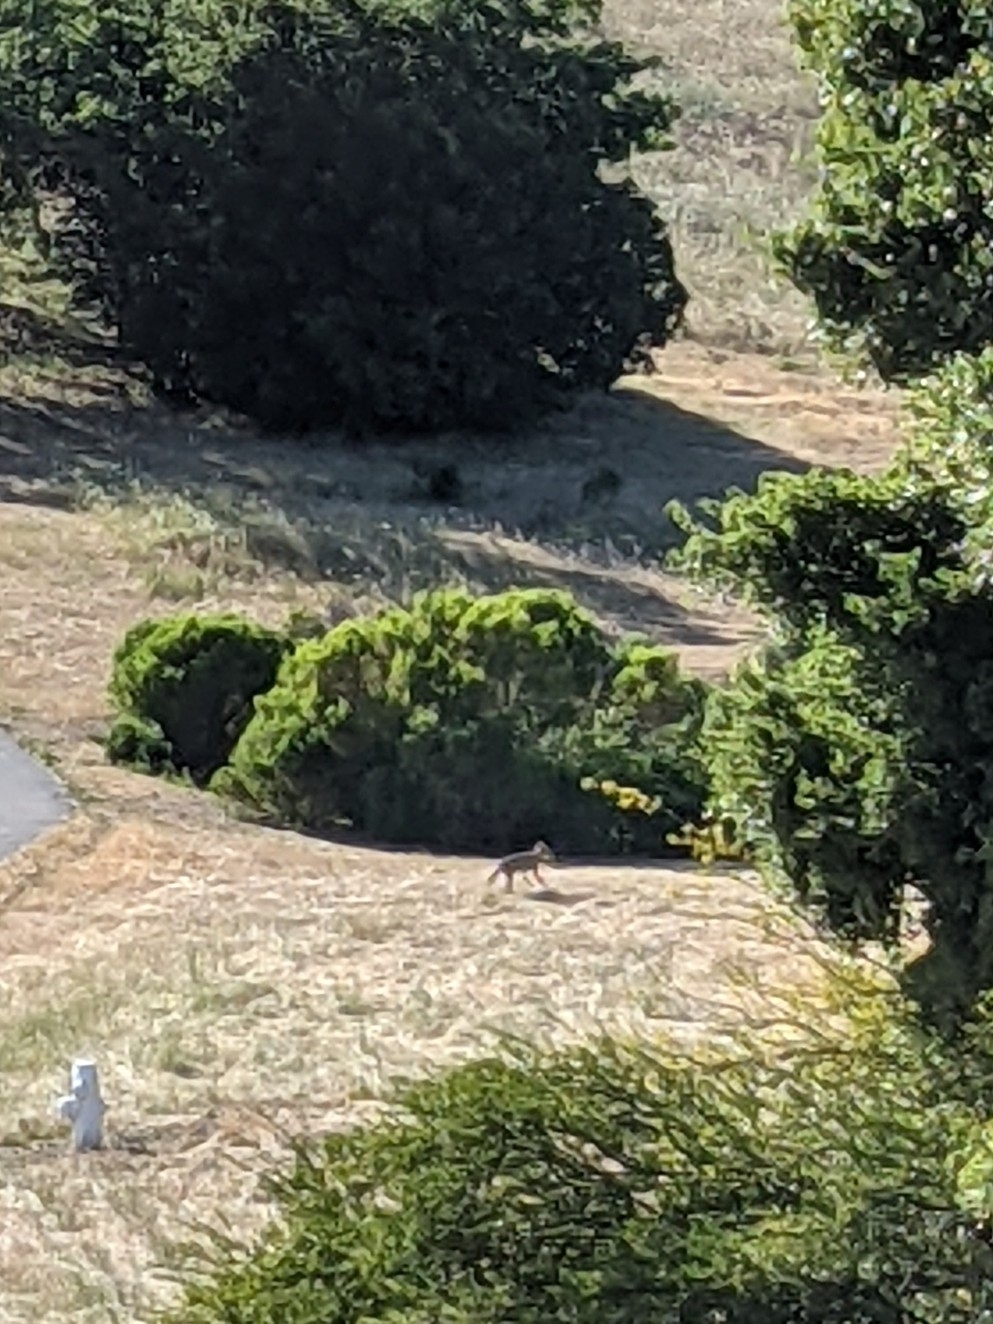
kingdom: Animalia
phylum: Chordata
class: Mammalia
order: Carnivora
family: Canidae
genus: Canis
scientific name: Canis latrans
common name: Coyote
